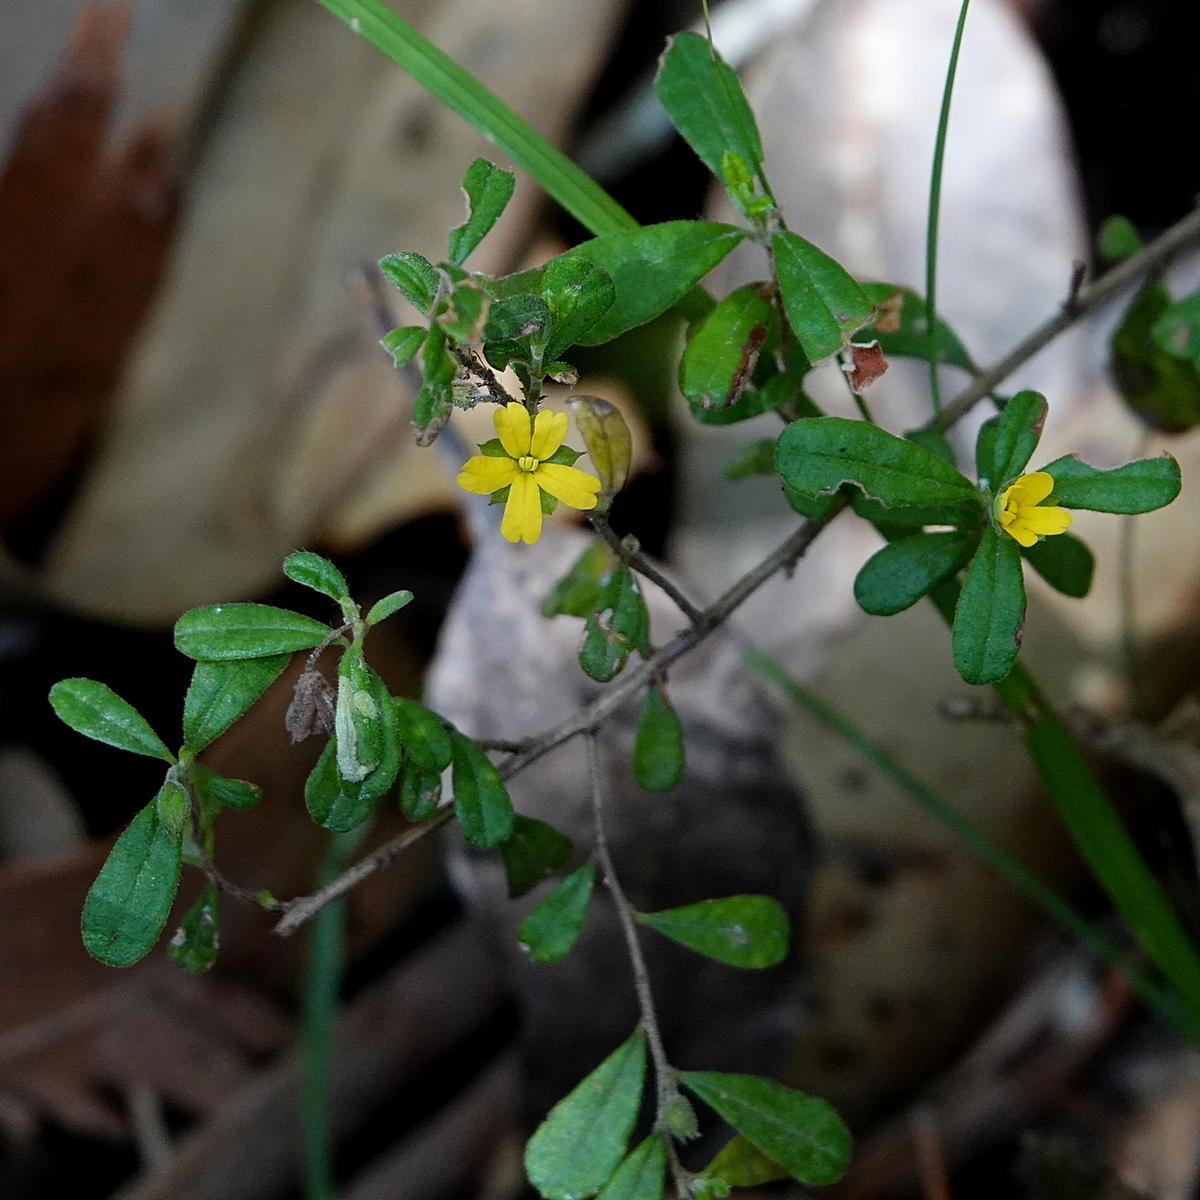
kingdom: Plantae
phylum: Tracheophyta
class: Magnoliopsida
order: Dilleniales
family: Dilleniaceae
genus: Hibbertia
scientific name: Hibbertia aspera
